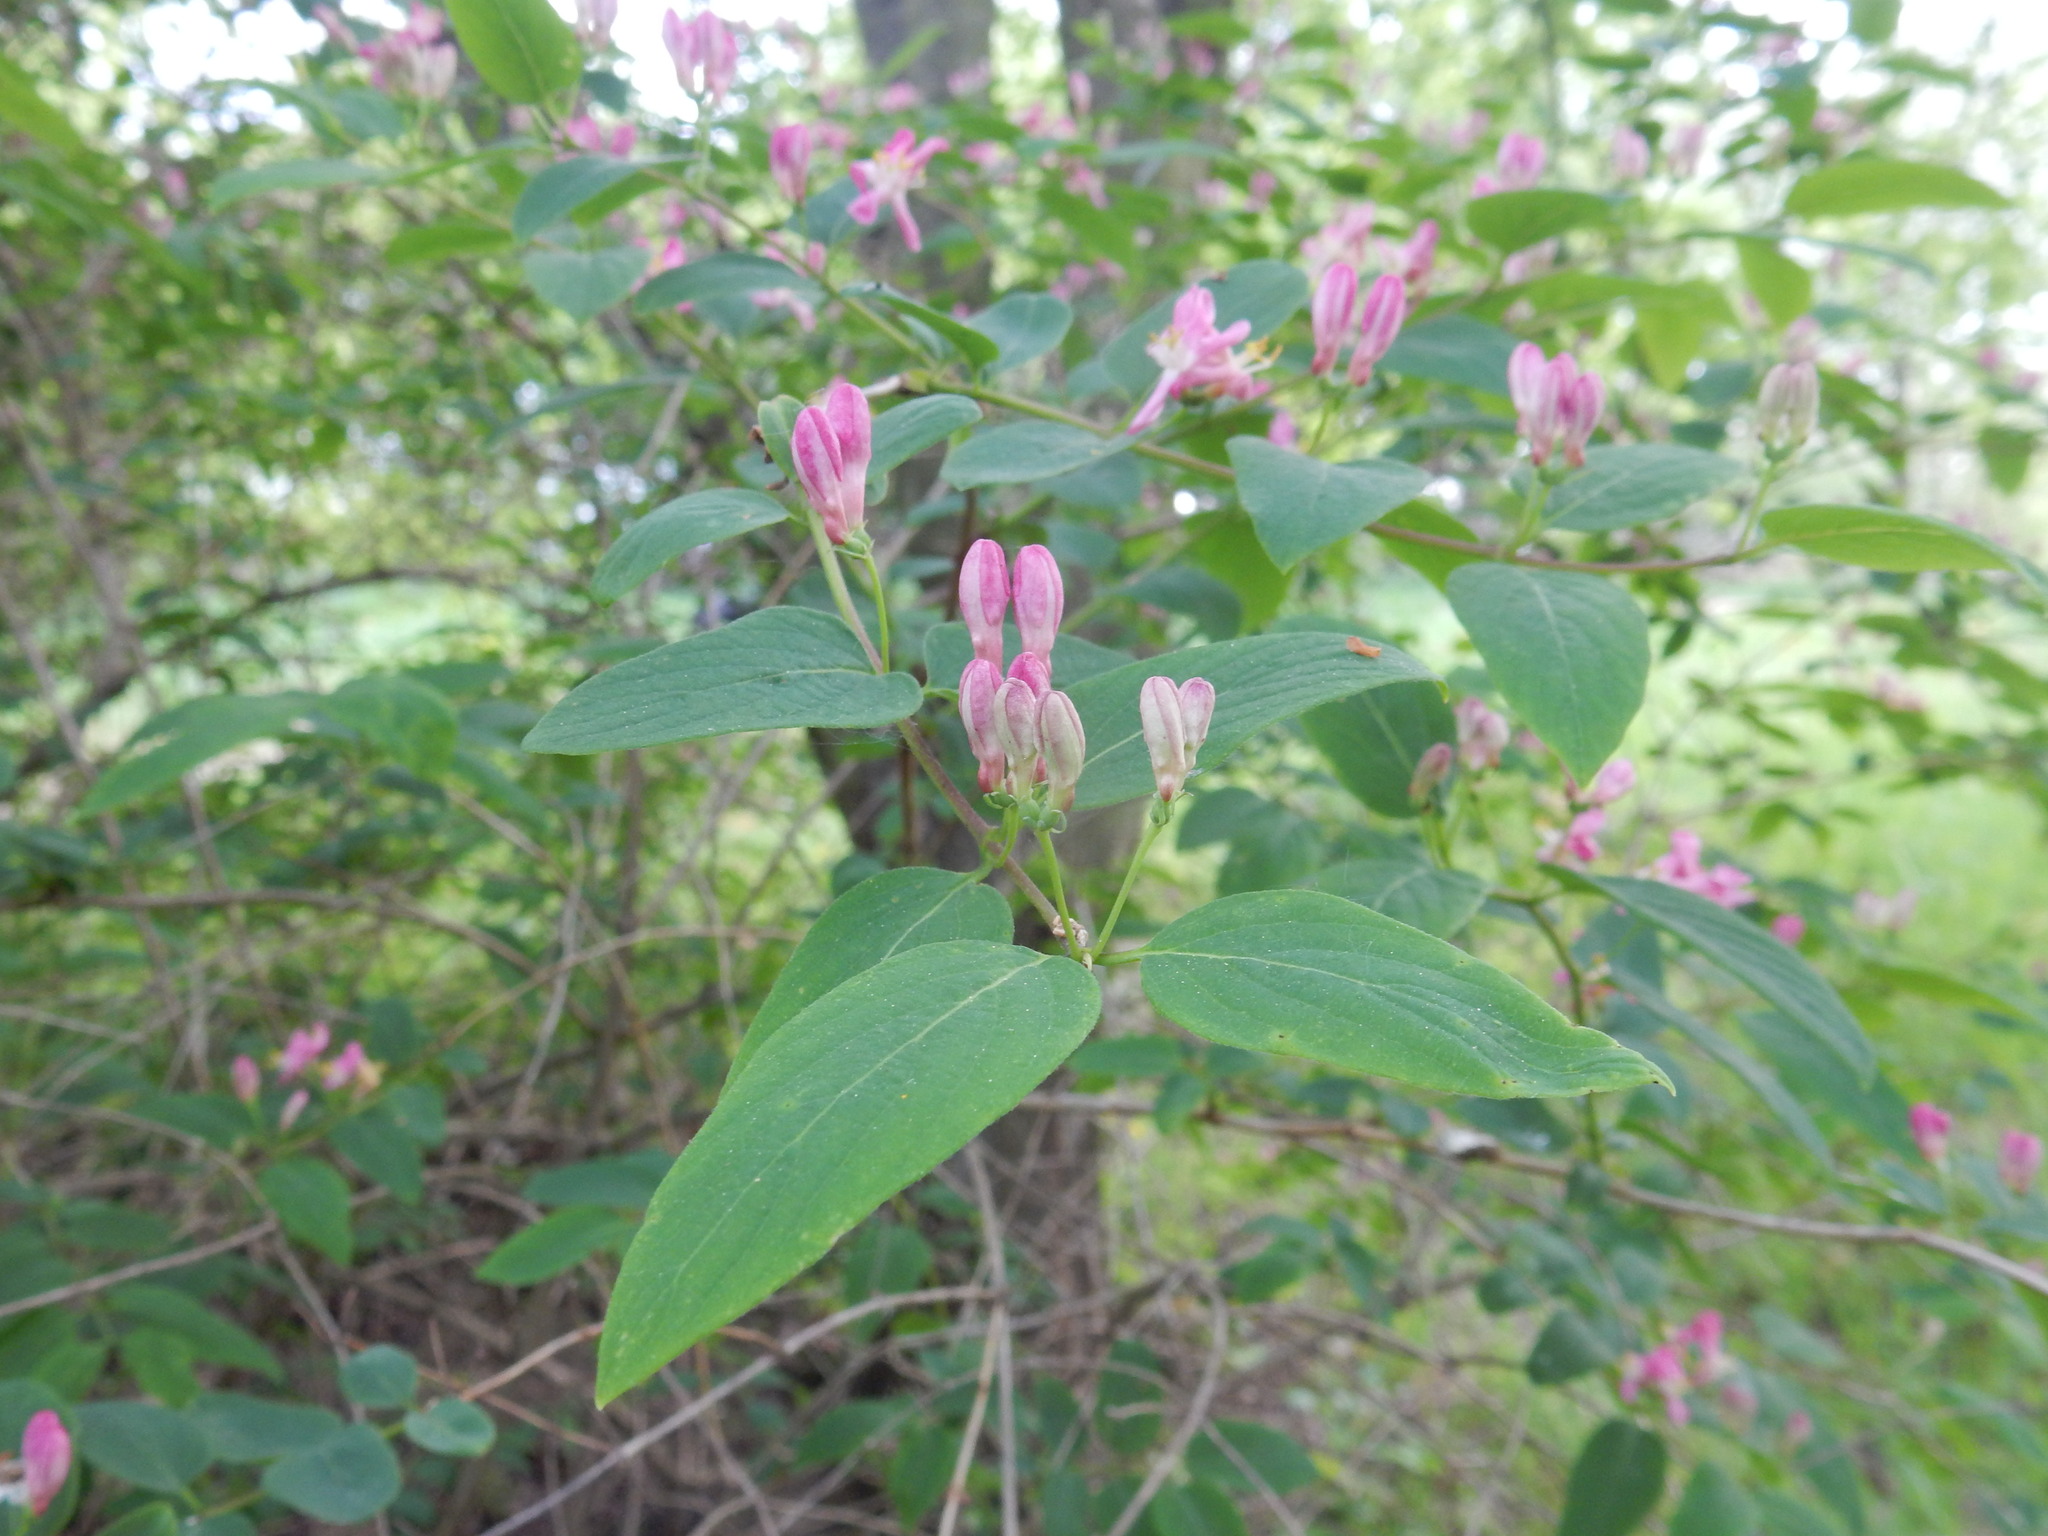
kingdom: Plantae
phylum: Tracheophyta
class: Magnoliopsida
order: Dipsacales
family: Caprifoliaceae
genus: Lonicera
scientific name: Lonicera tatarica
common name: Tatarian honeysuckle
